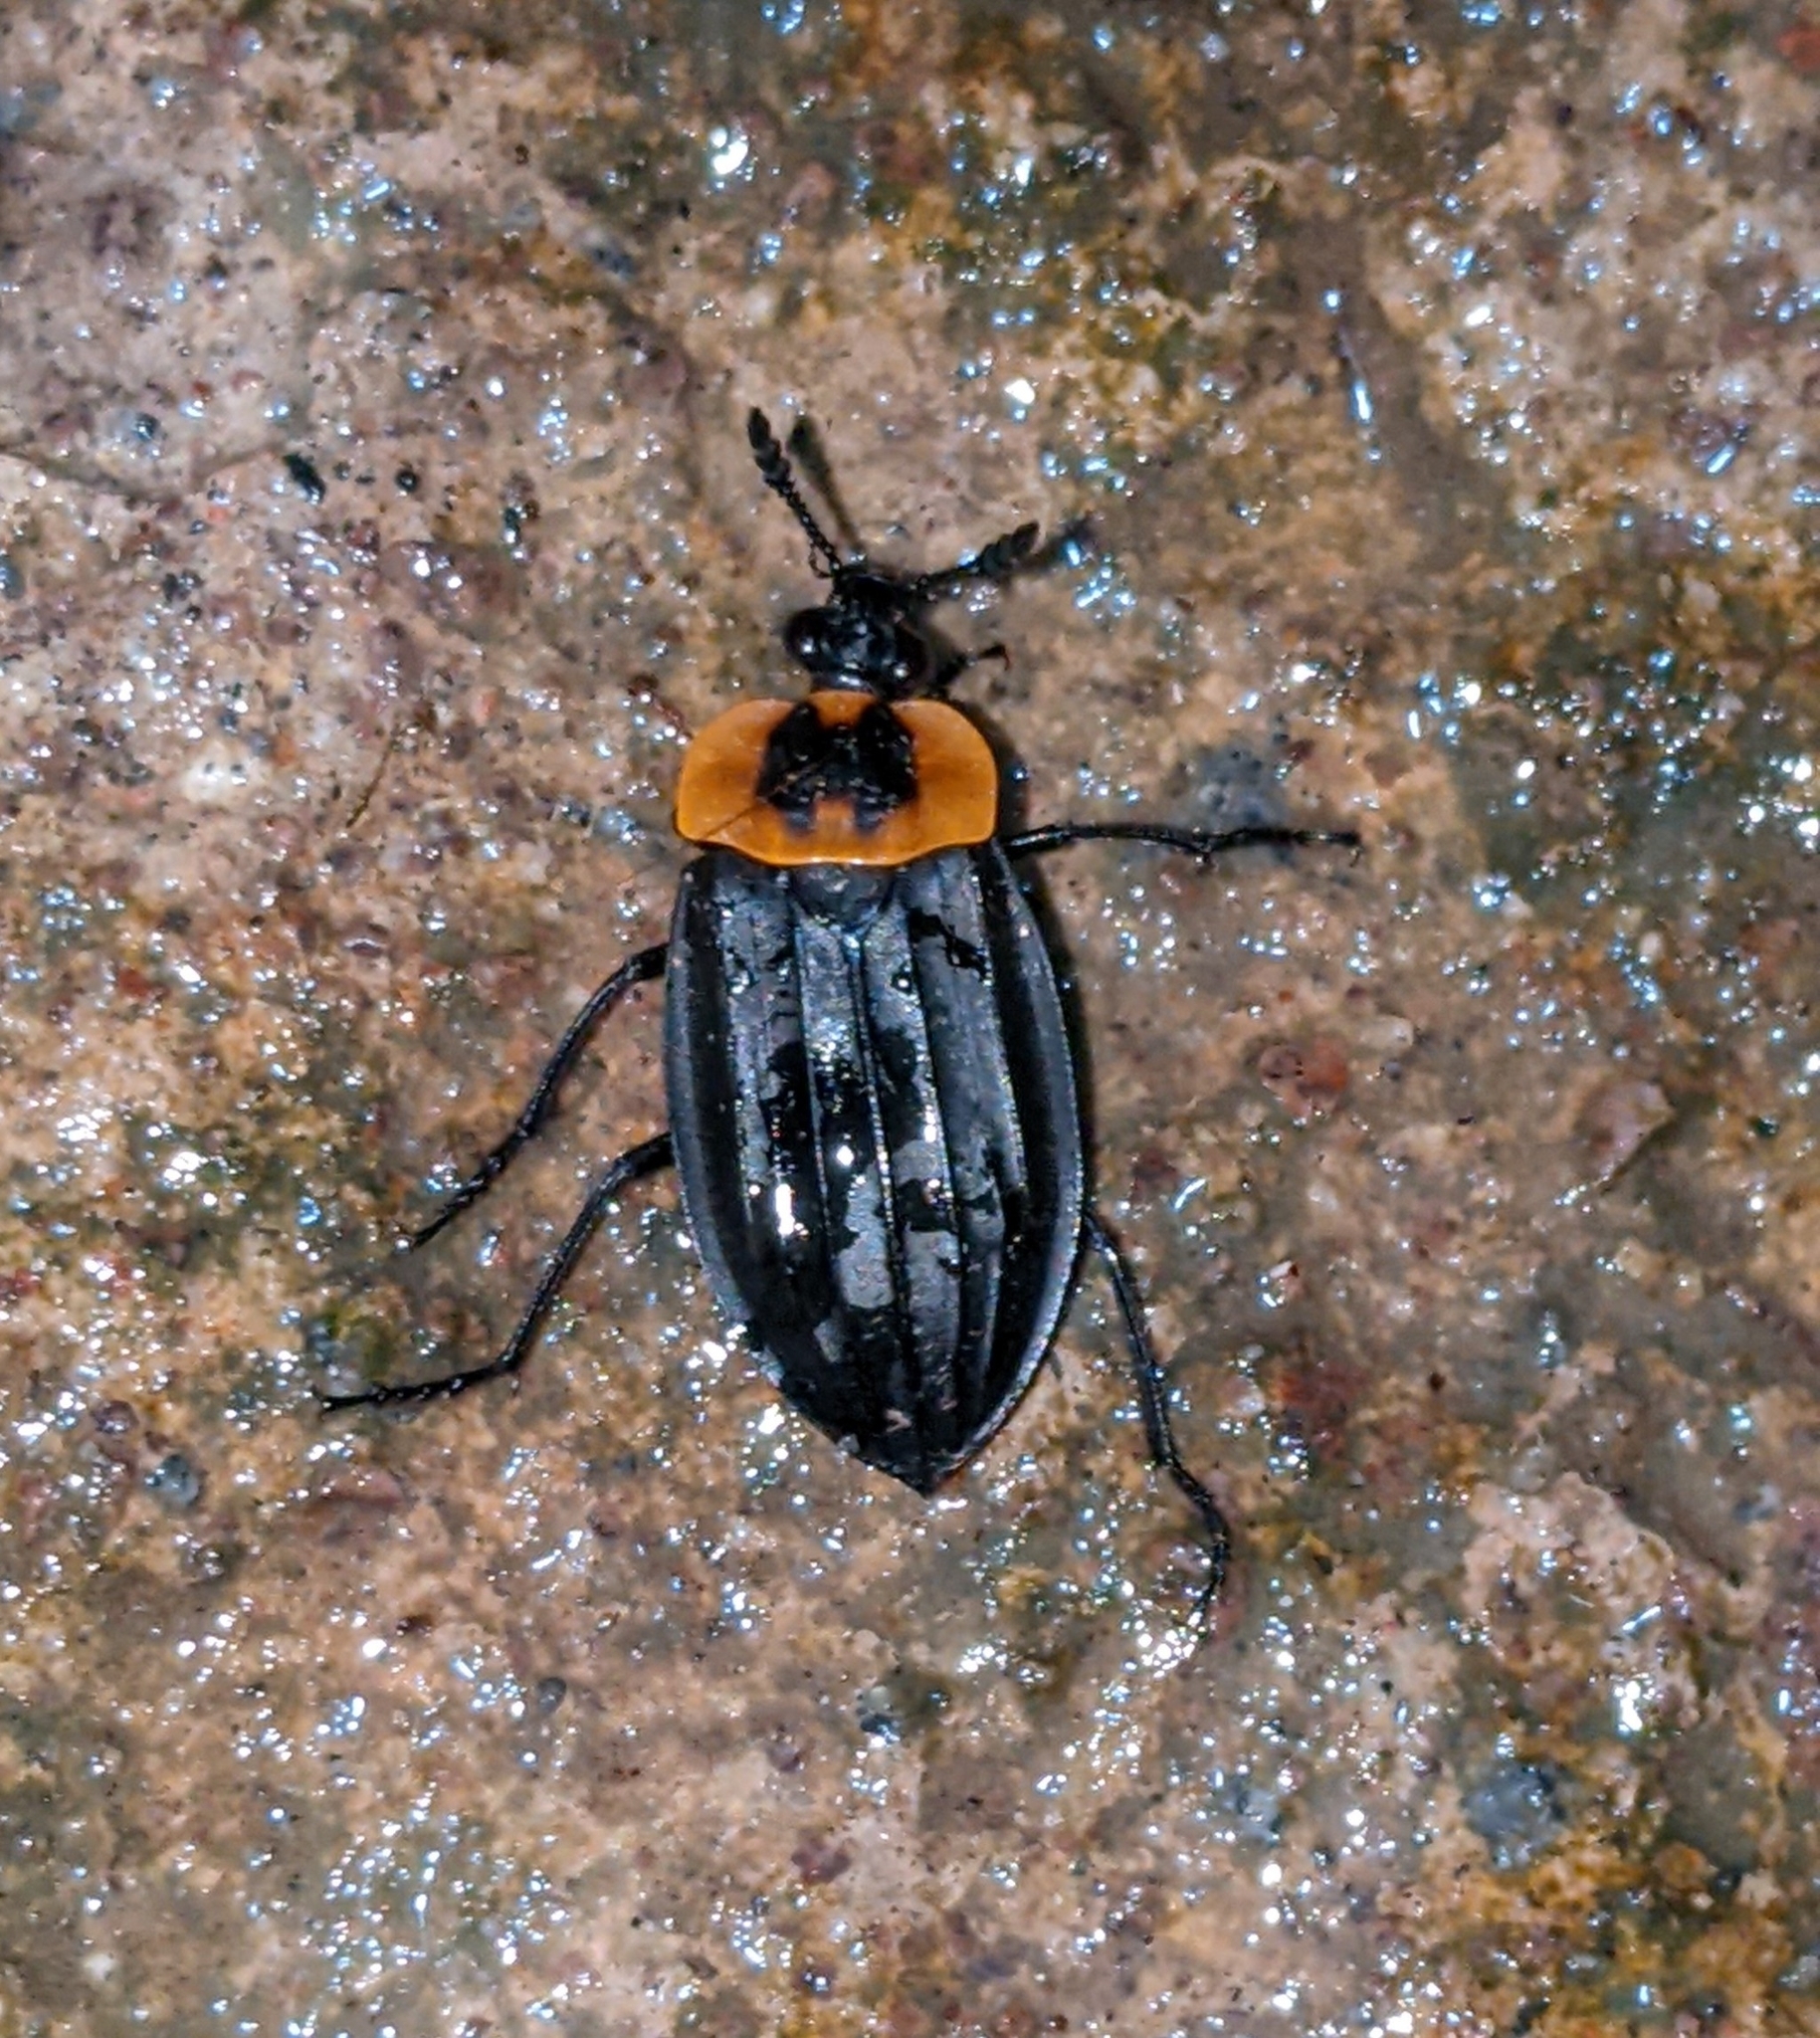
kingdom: Animalia
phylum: Arthropoda
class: Insecta
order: Coleoptera
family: Staphylinidae
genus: Oxelytrum
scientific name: Oxelytrum discicolle
